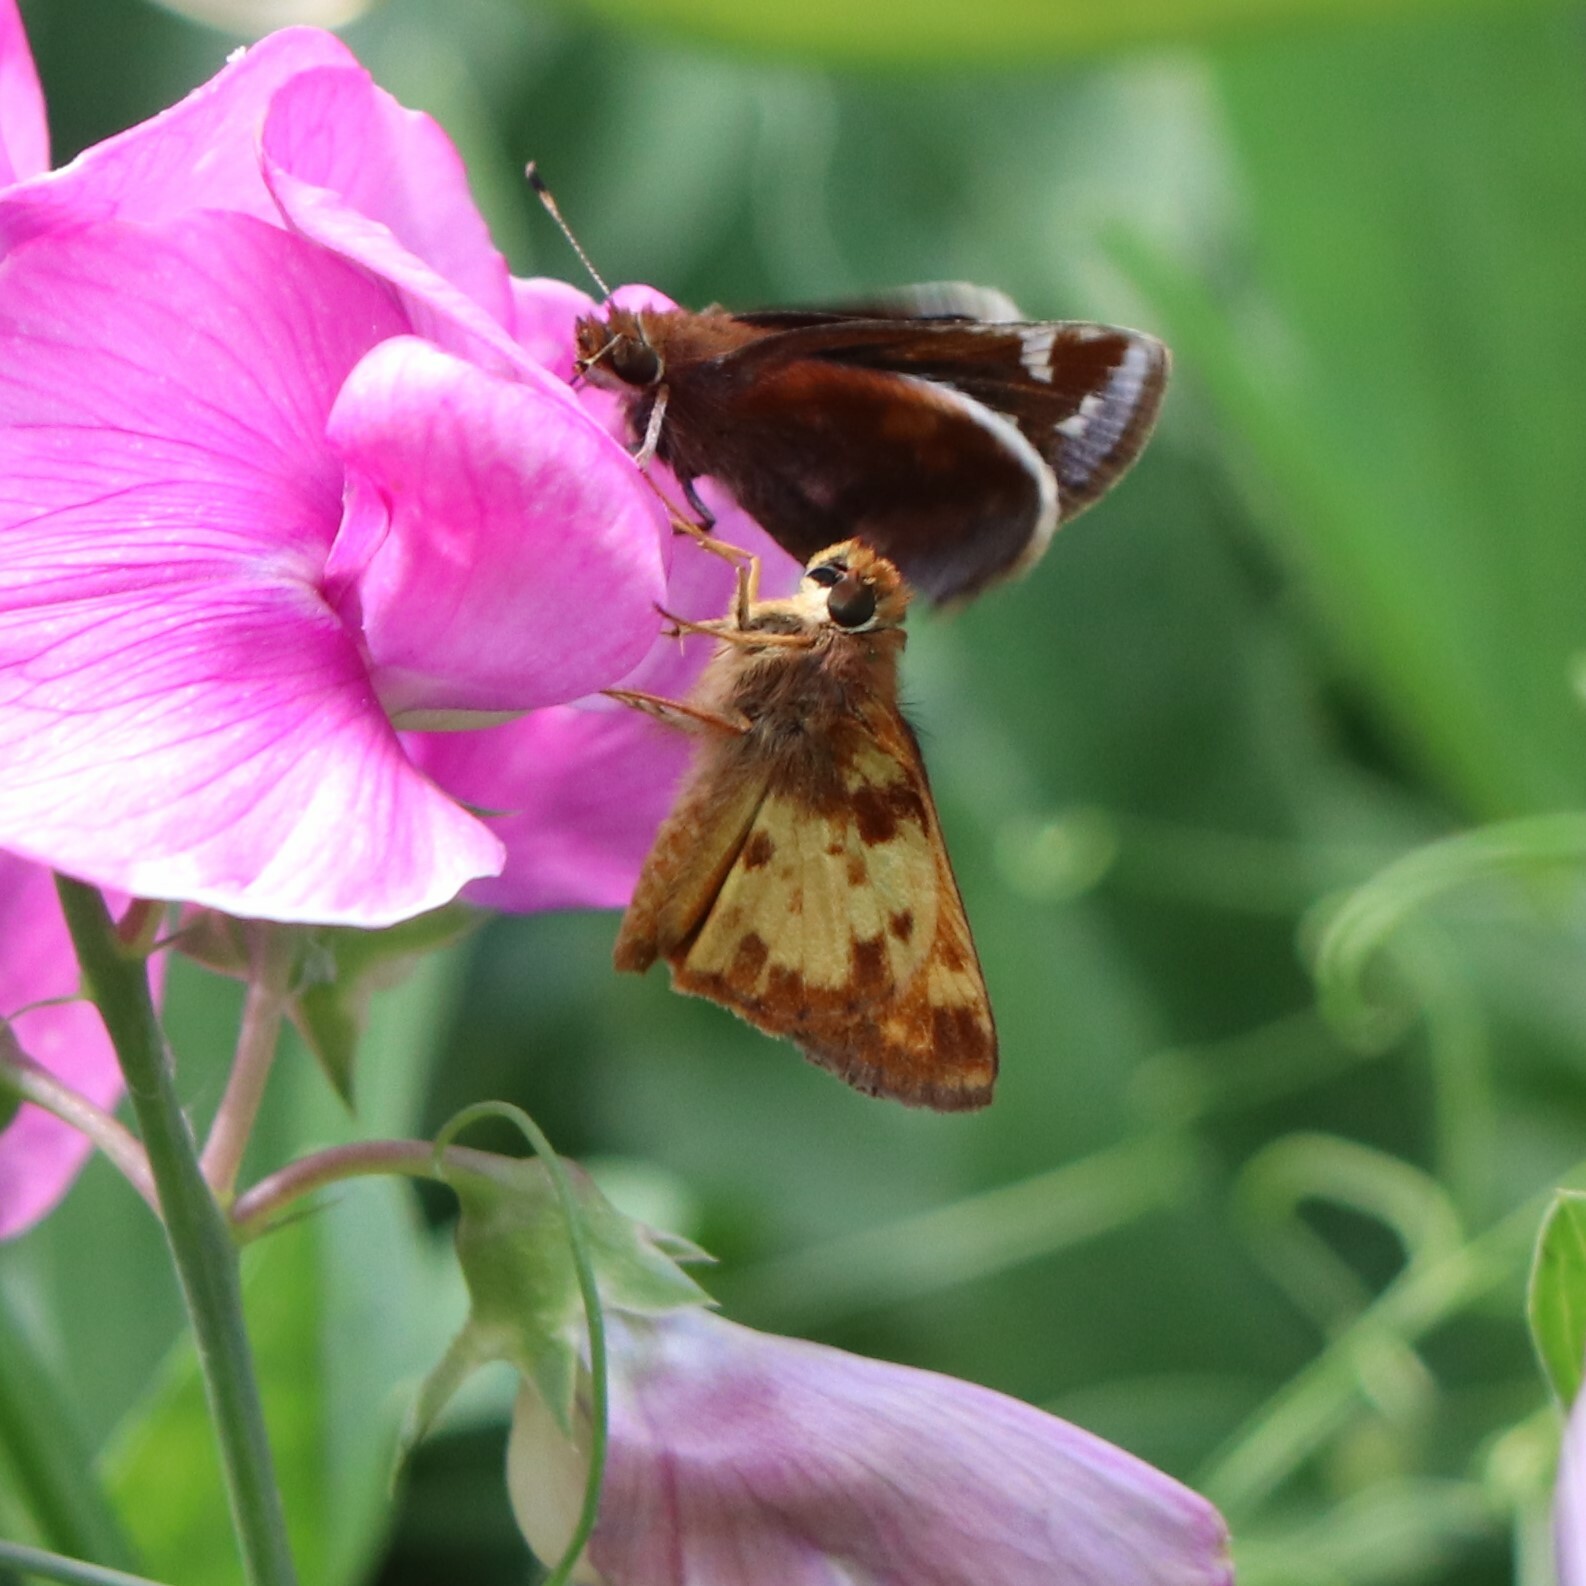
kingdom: Animalia
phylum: Arthropoda
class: Insecta
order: Lepidoptera
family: Hesperiidae
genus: Lon
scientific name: Lon zabulon
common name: Zabulon skipper
